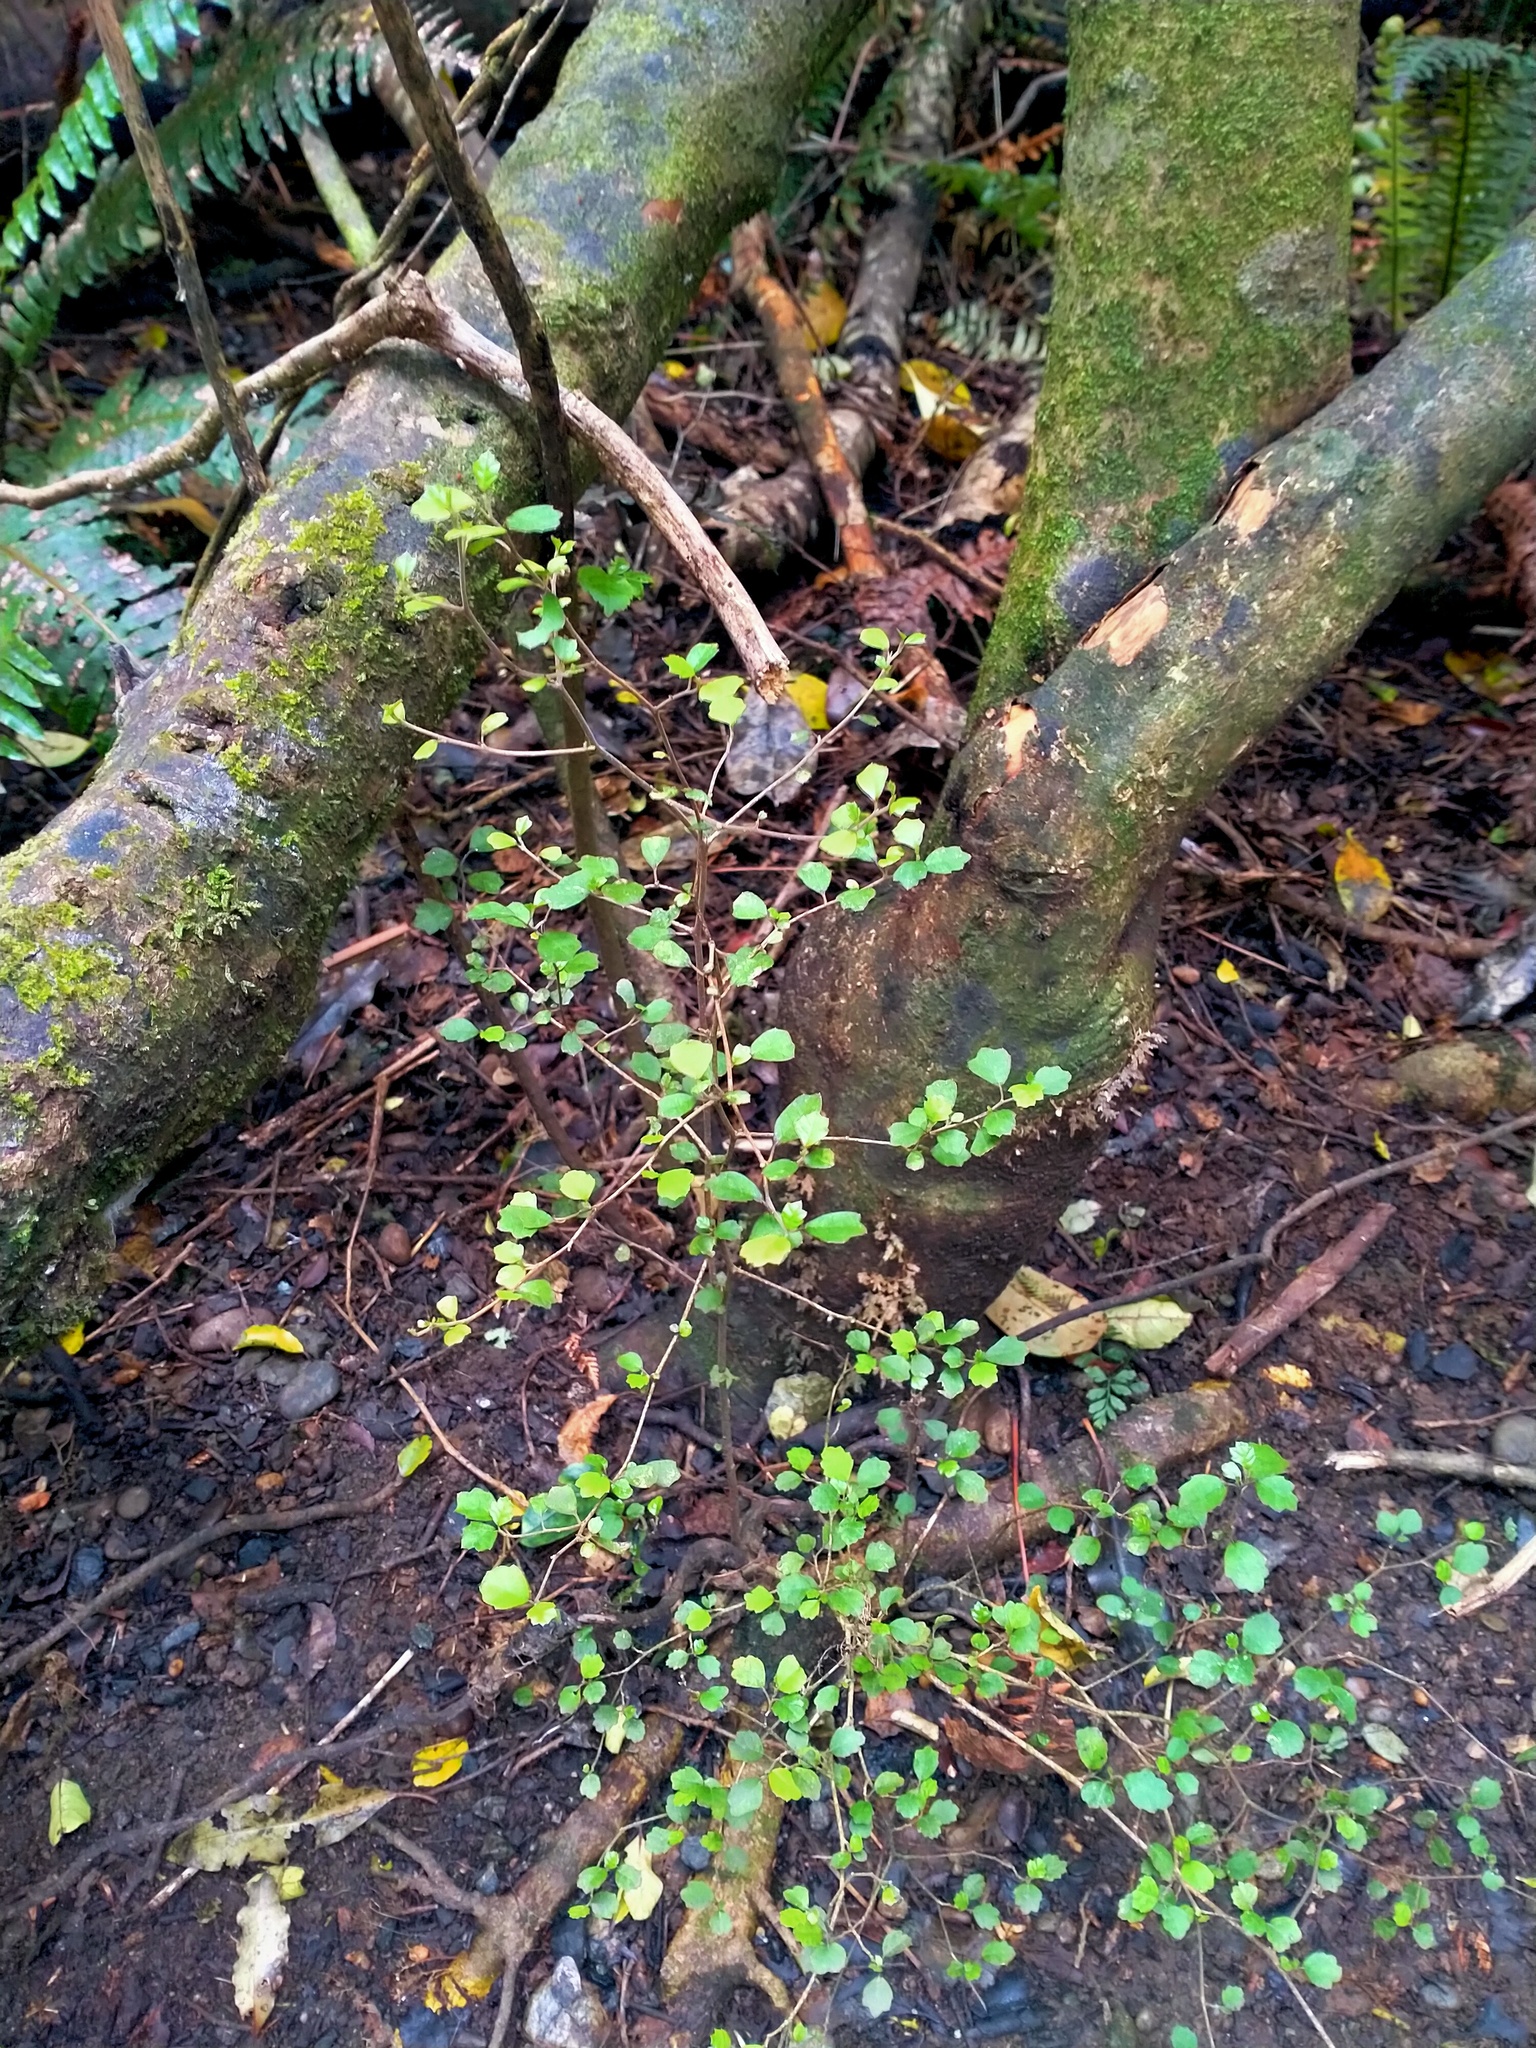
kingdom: Plantae
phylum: Tracheophyta
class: Magnoliopsida
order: Apiales
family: Pennantiaceae
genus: Pennantia
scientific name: Pennantia corymbosa
